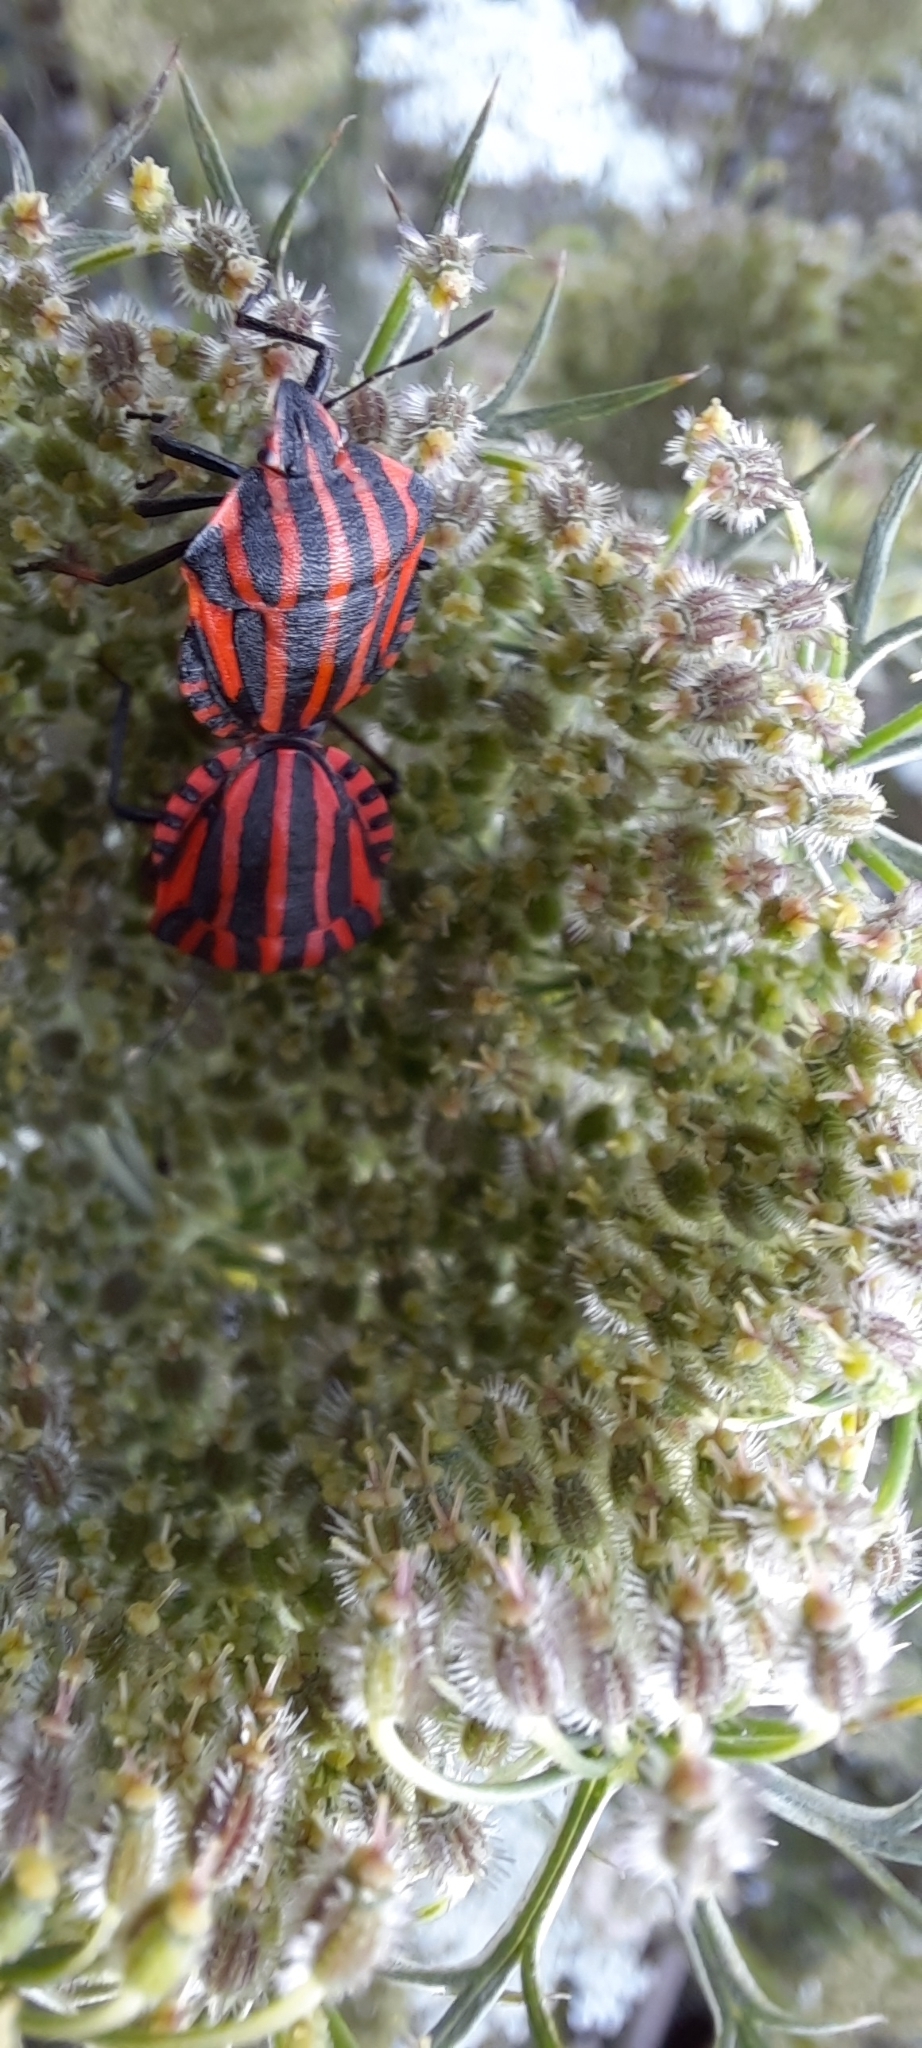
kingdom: Animalia
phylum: Arthropoda
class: Insecta
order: Hemiptera
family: Pentatomidae
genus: Graphosoma
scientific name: Graphosoma italicum
